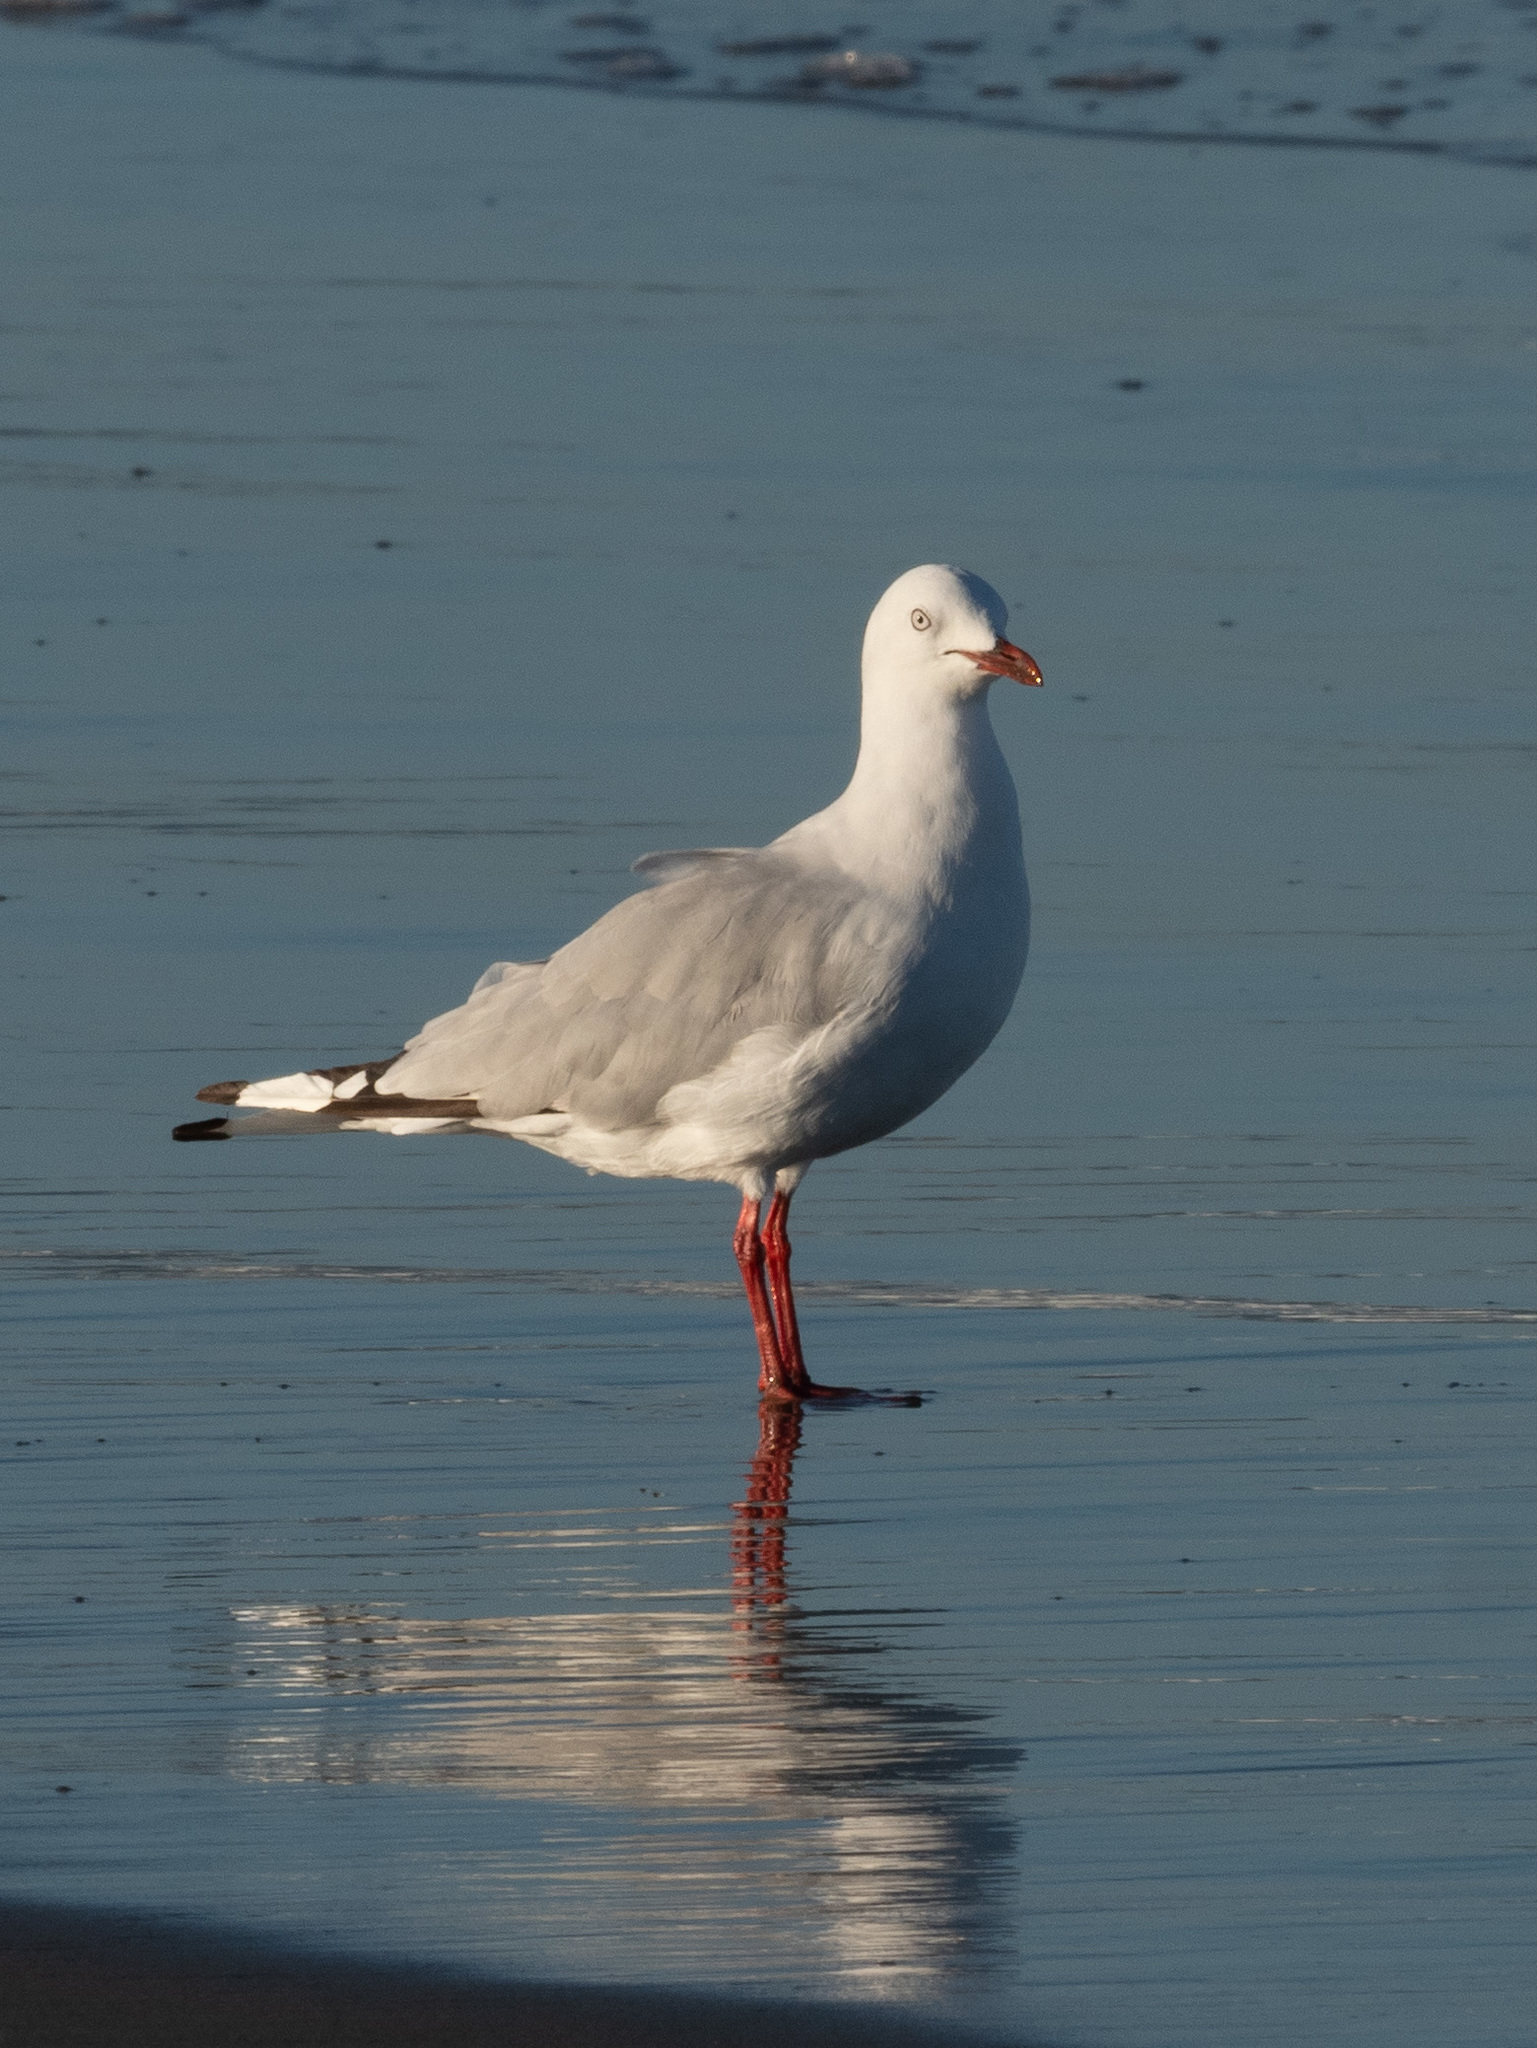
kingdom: Animalia
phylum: Chordata
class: Aves
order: Charadriiformes
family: Laridae
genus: Chroicocephalus
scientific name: Chroicocephalus novaehollandiae
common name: Silver gull
